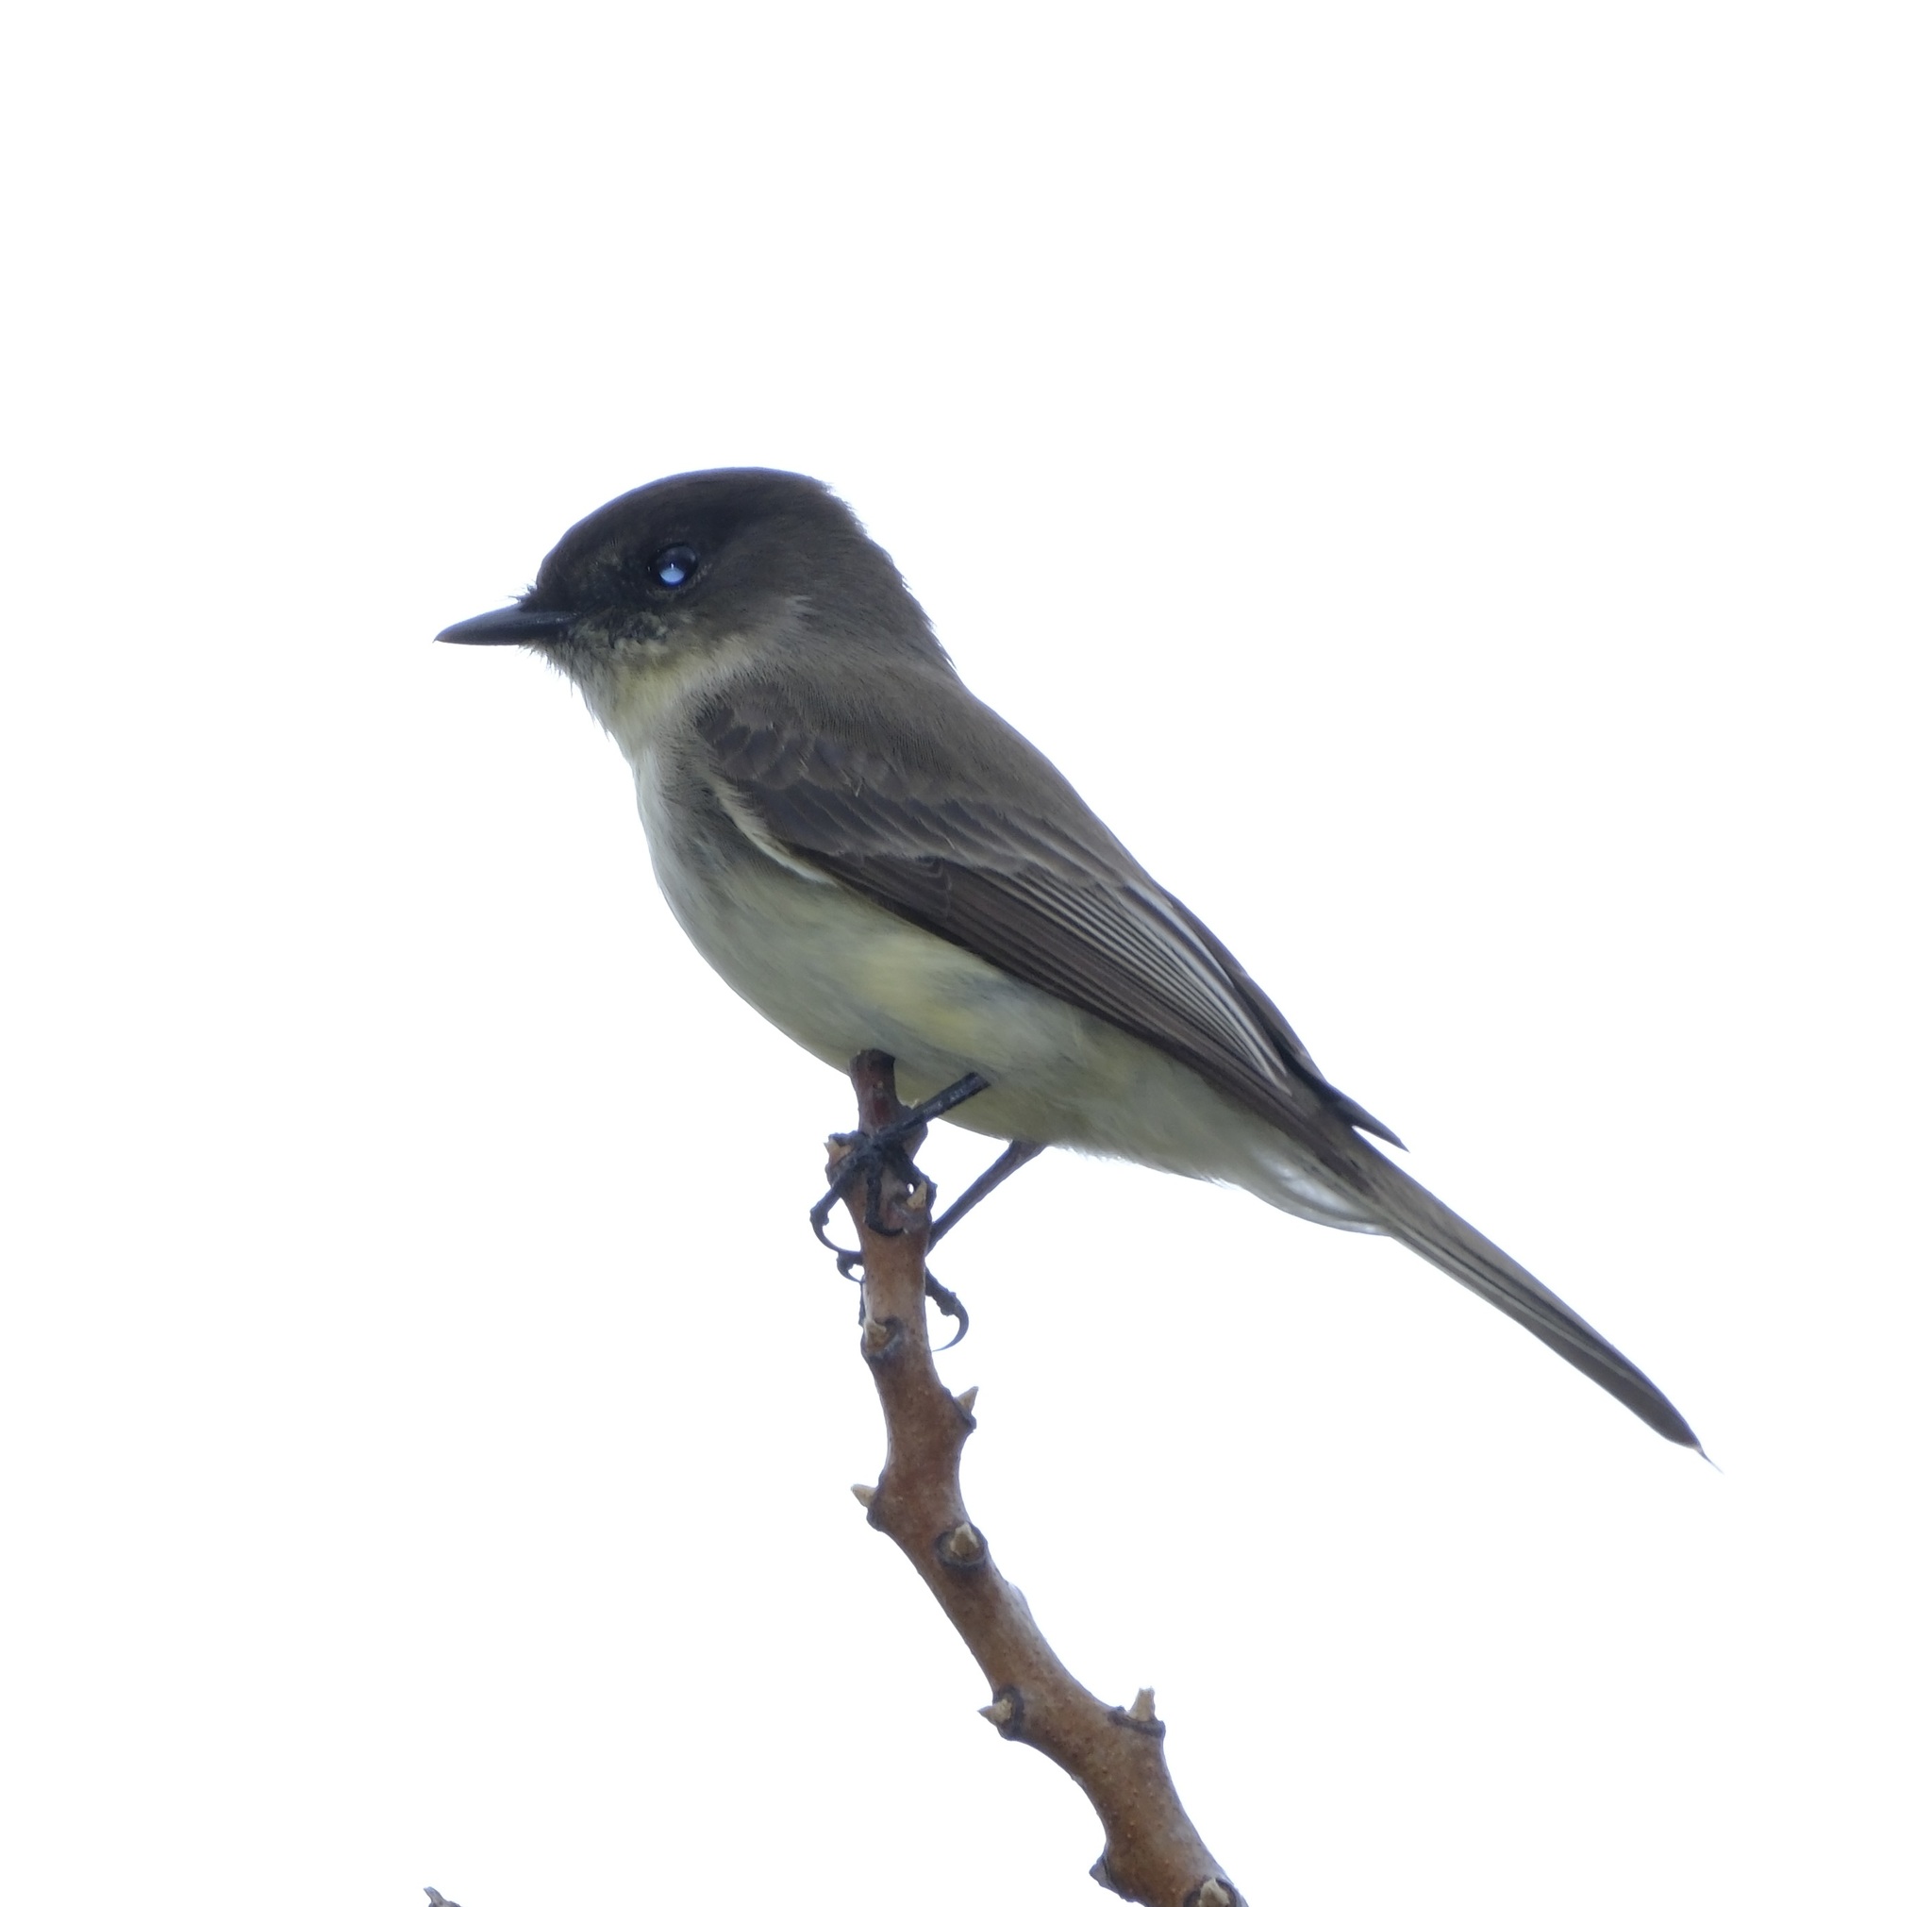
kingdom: Animalia
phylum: Chordata
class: Aves
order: Passeriformes
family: Tyrannidae
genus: Sayornis
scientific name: Sayornis phoebe
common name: Eastern phoebe
